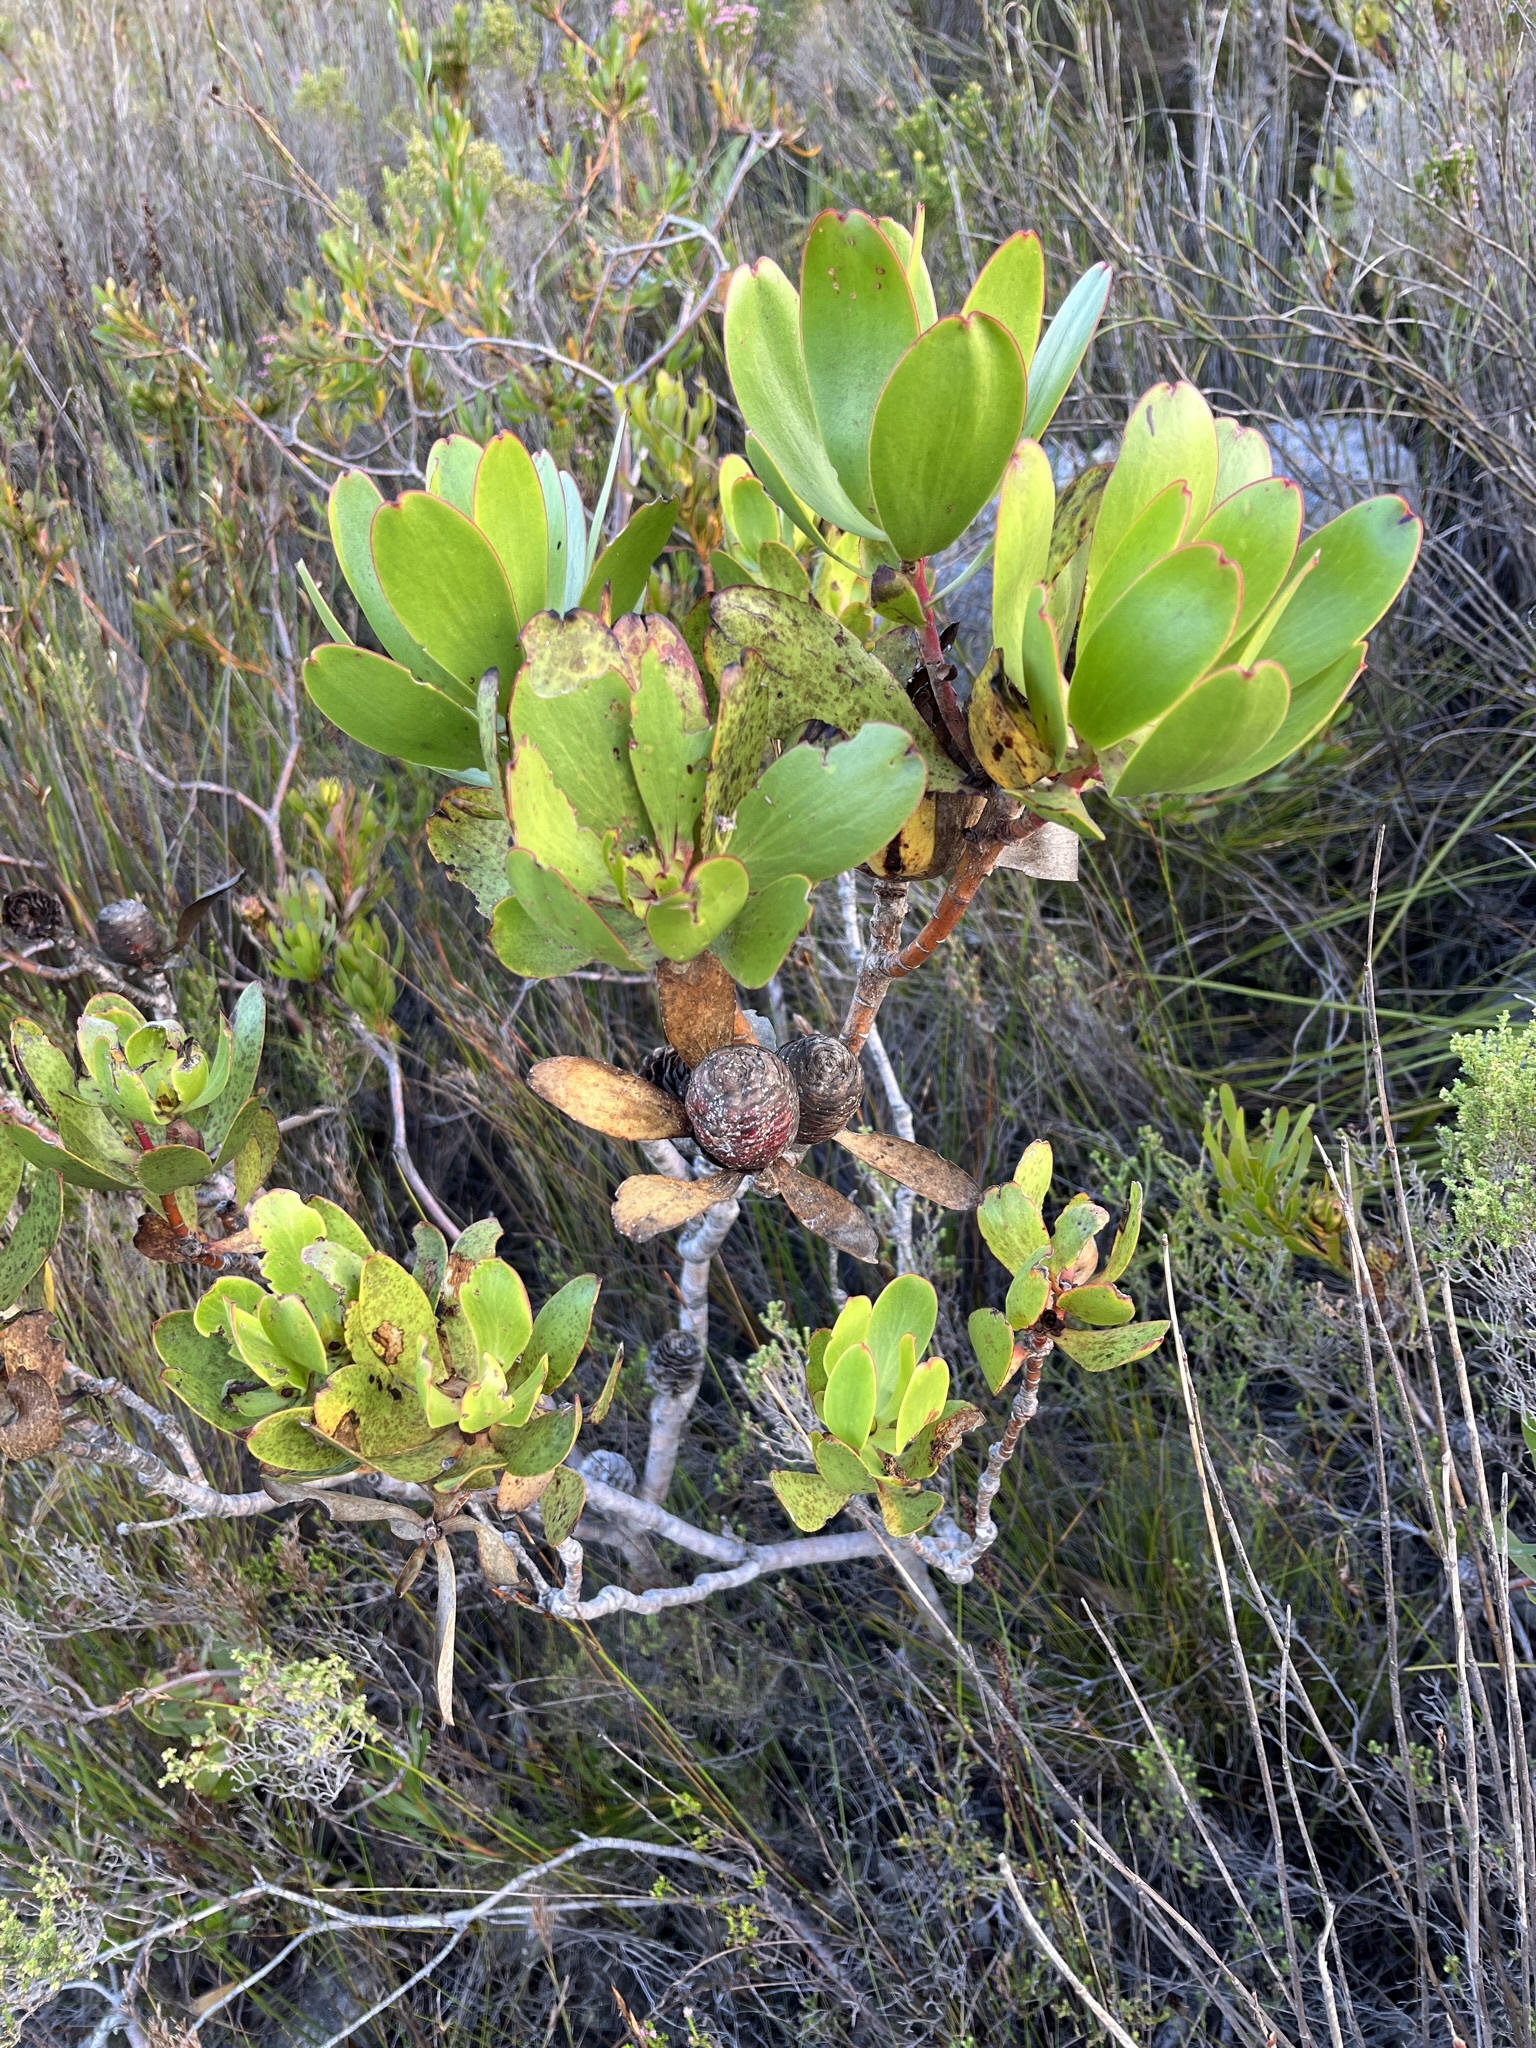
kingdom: Plantae
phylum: Tracheophyta
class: Magnoliopsida
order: Proteales
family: Proteaceae
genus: Leucadendron
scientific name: Leucadendron gandogeri
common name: Broad-leaf conebush
